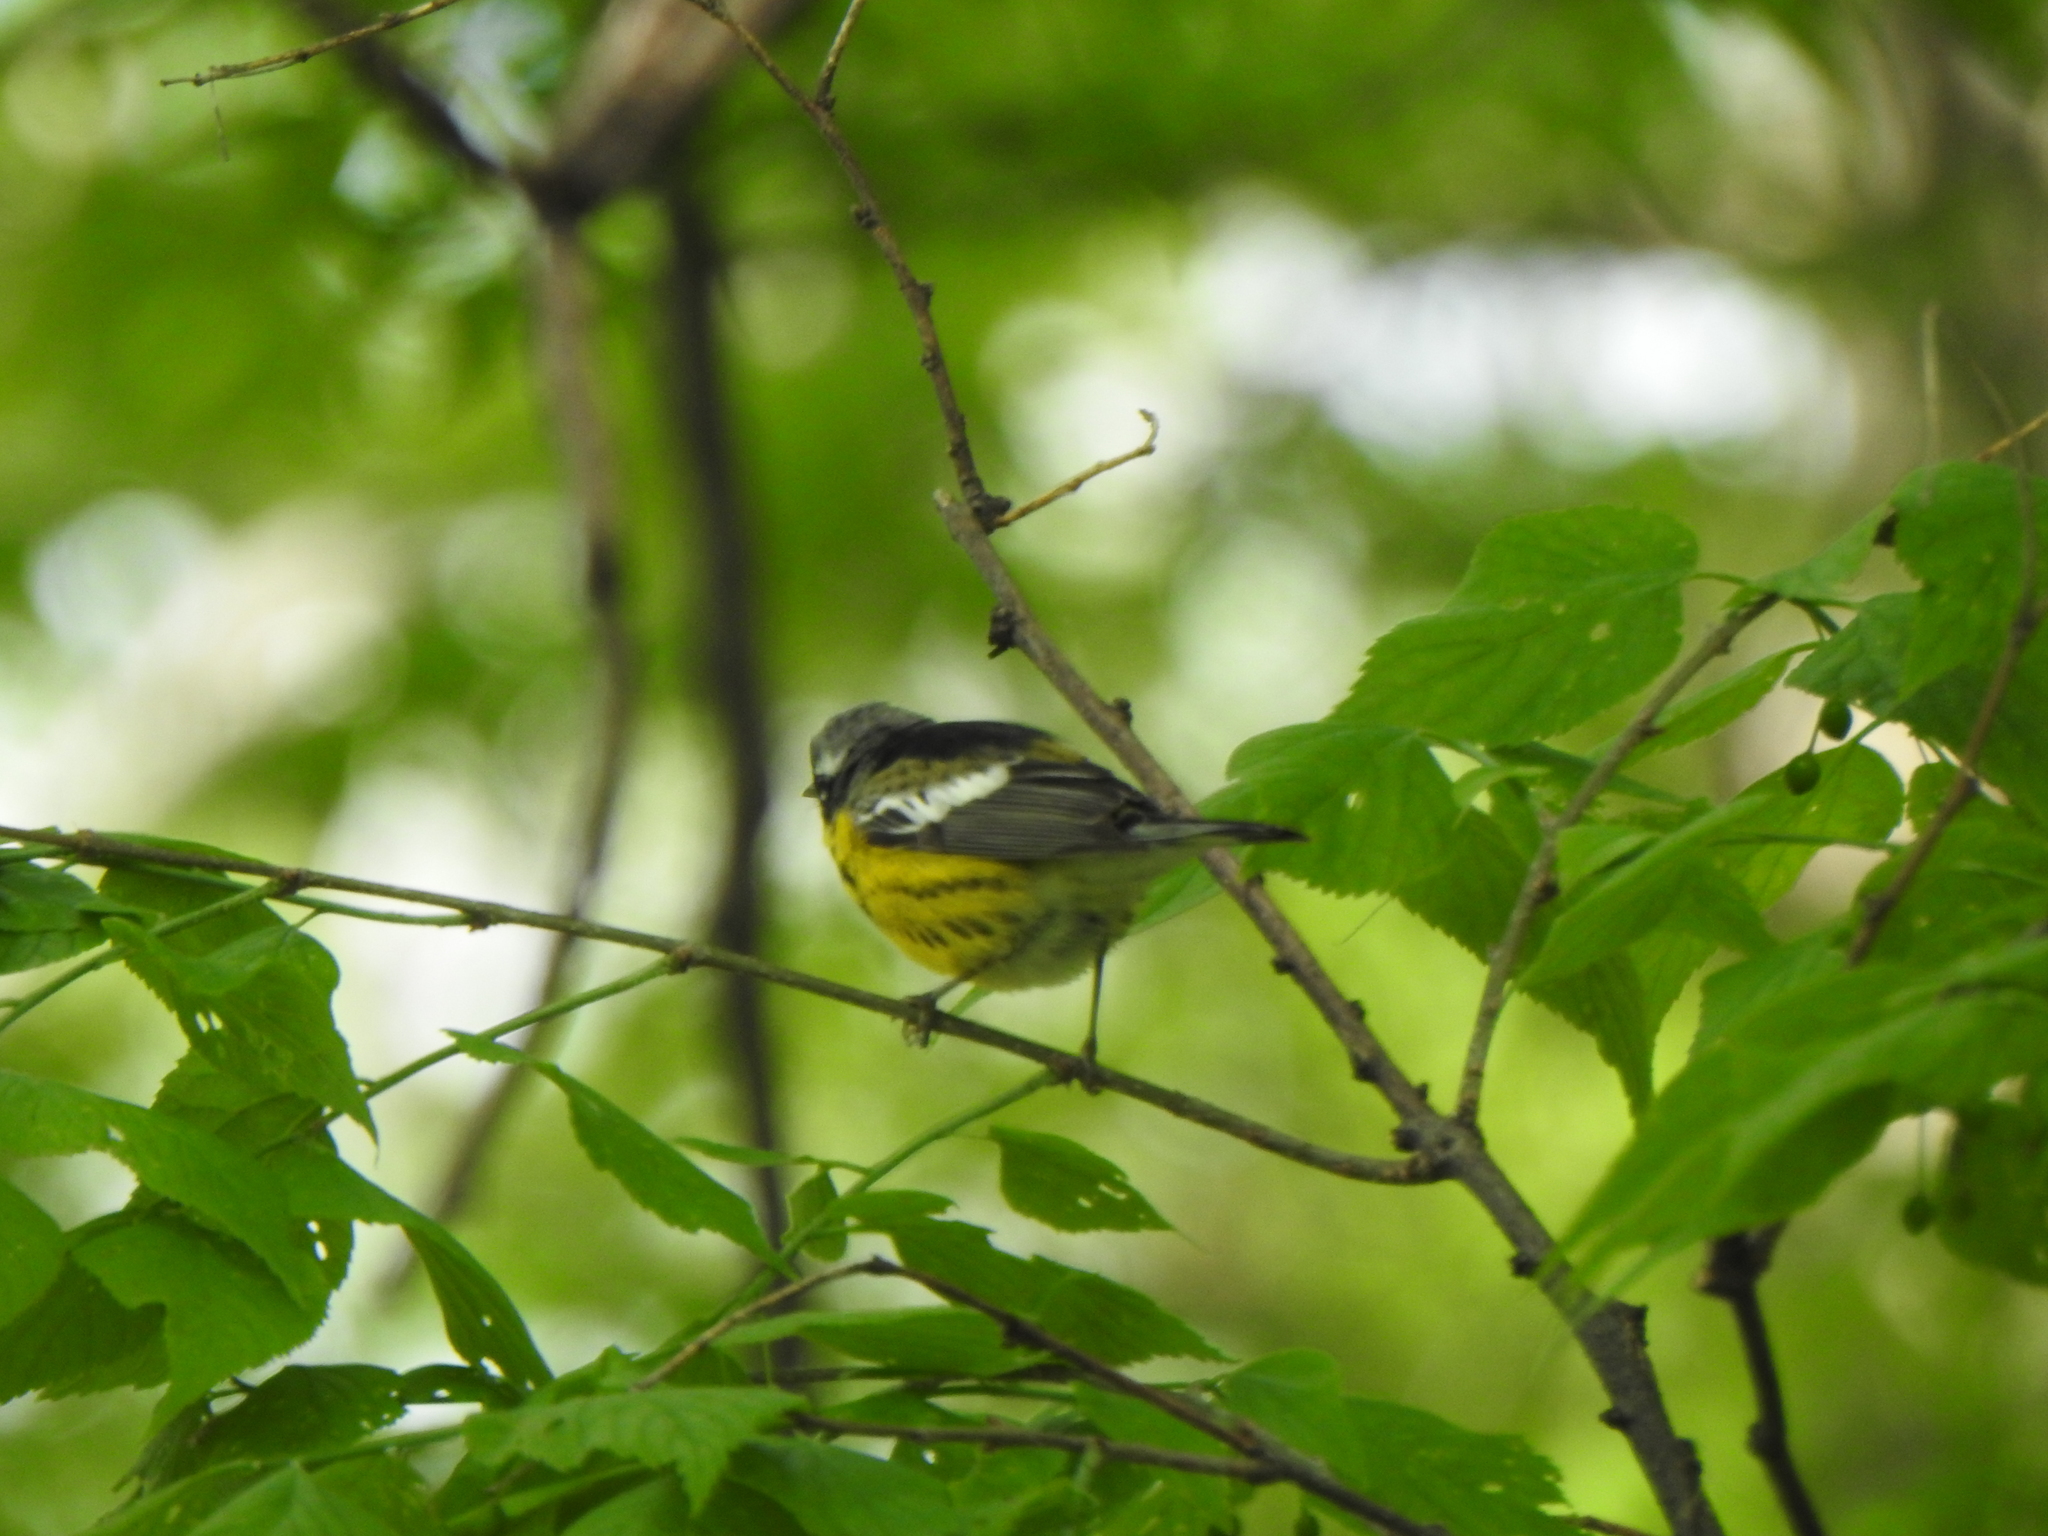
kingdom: Animalia
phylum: Chordata
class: Aves
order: Passeriformes
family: Parulidae
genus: Setophaga
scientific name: Setophaga magnolia
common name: Magnolia warbler
